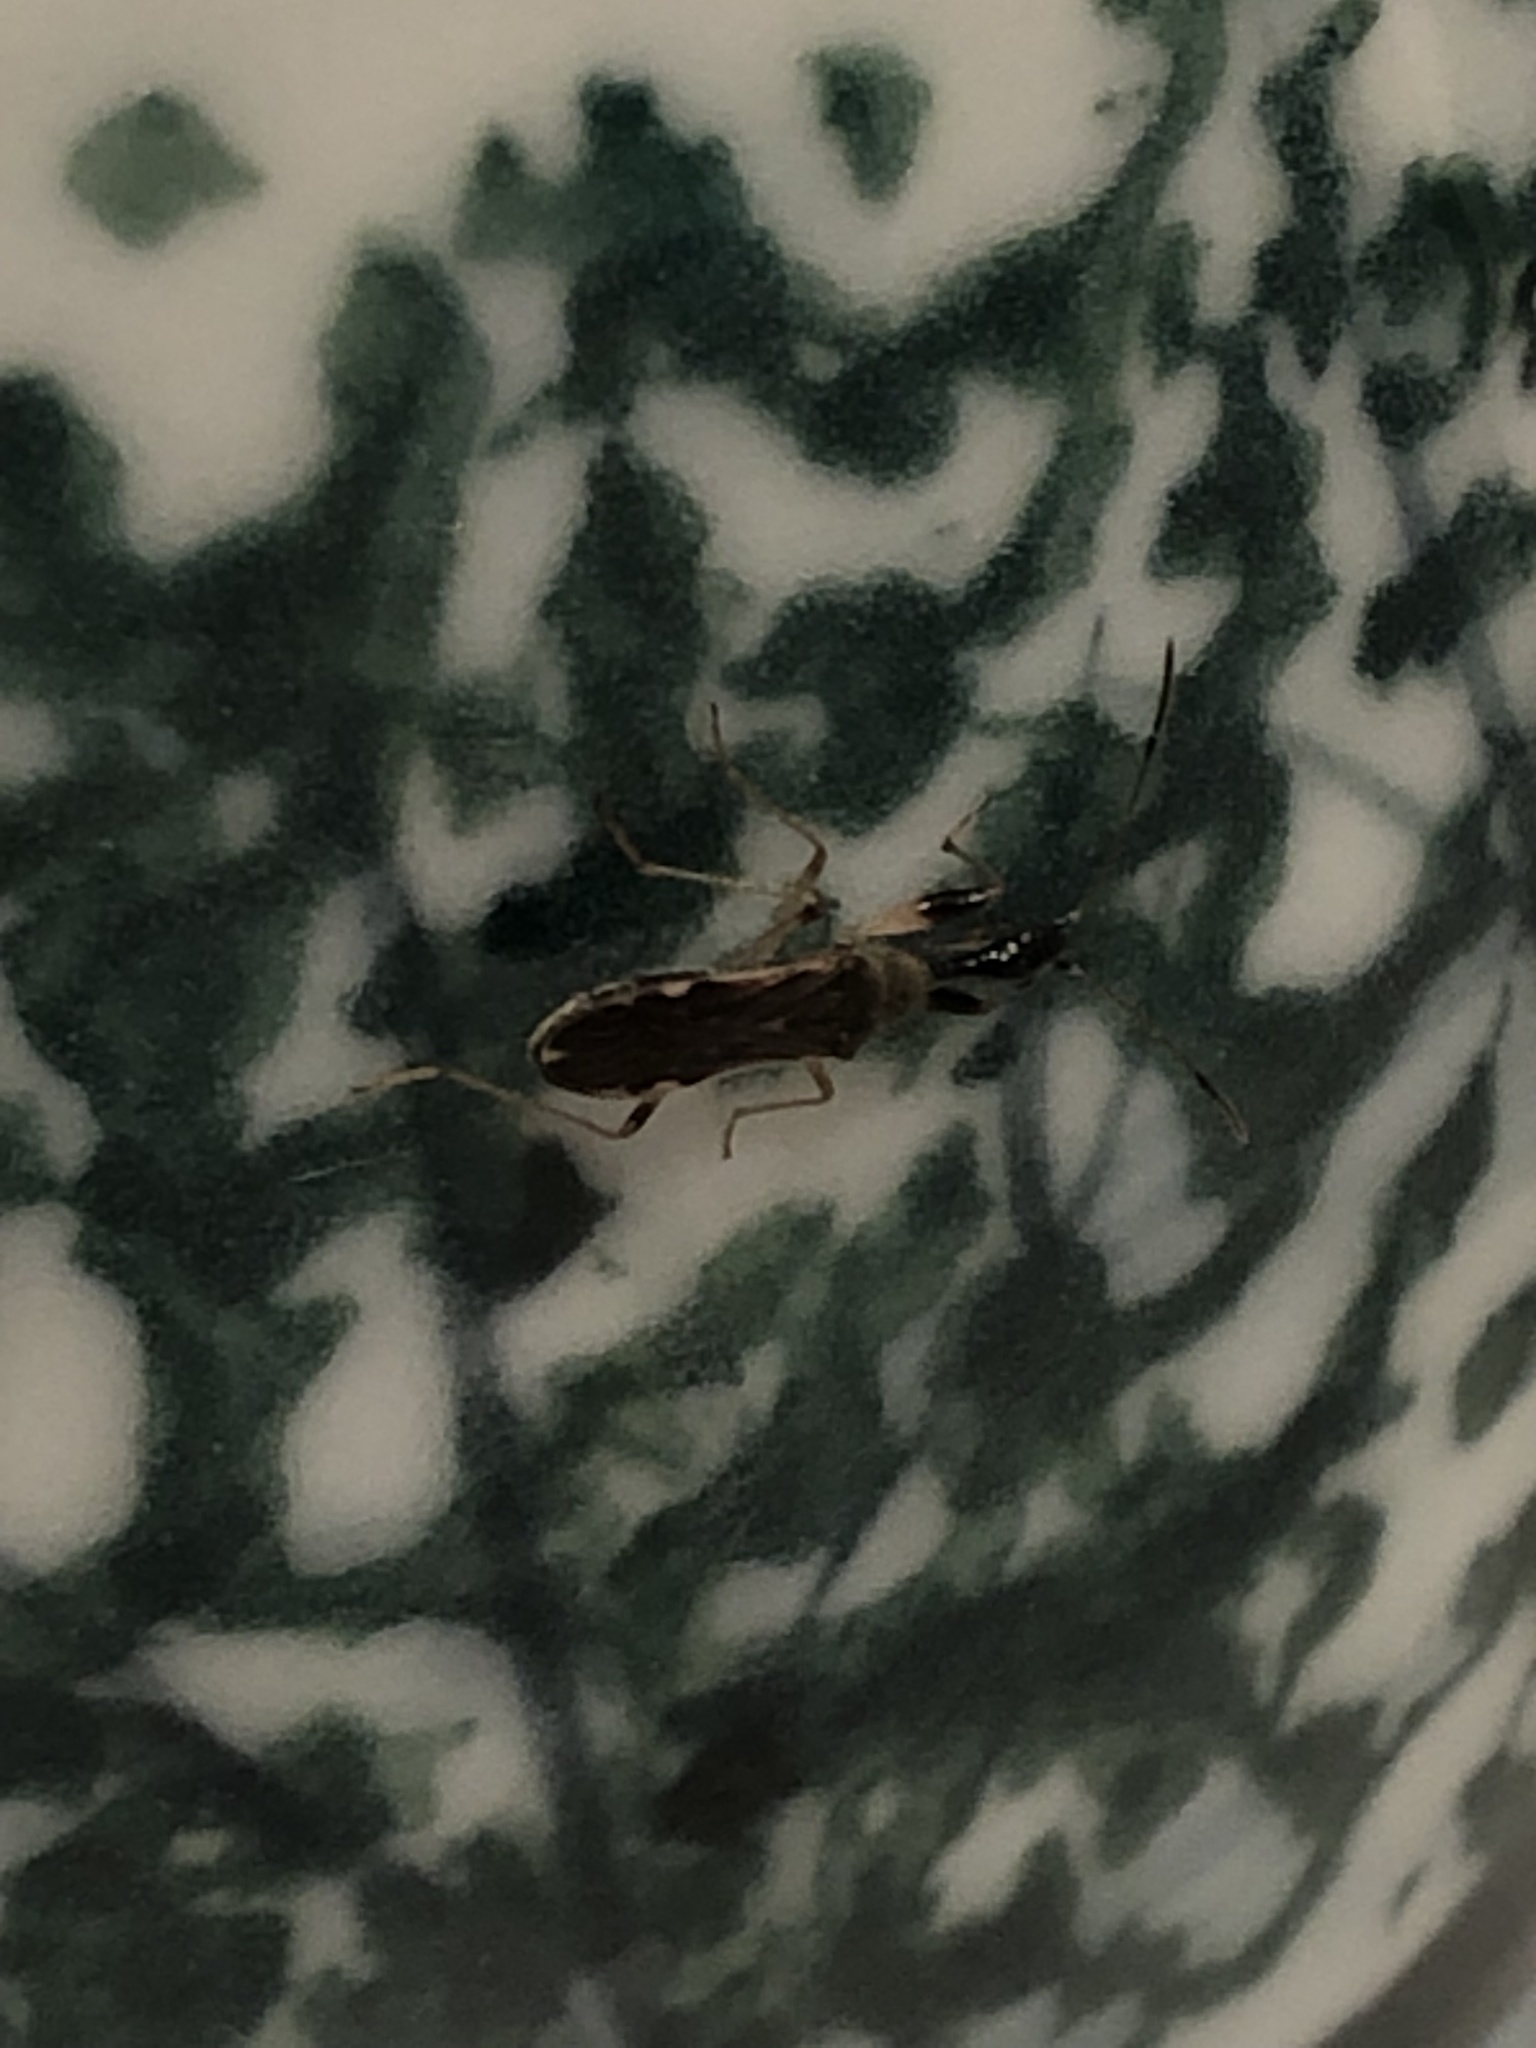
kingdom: Animalia
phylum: Arthropoda
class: Insecta
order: Hemiptera
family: Rhyparochromidae
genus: Myodocha
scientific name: Myodocha serripes
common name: Long-necked seed bug
